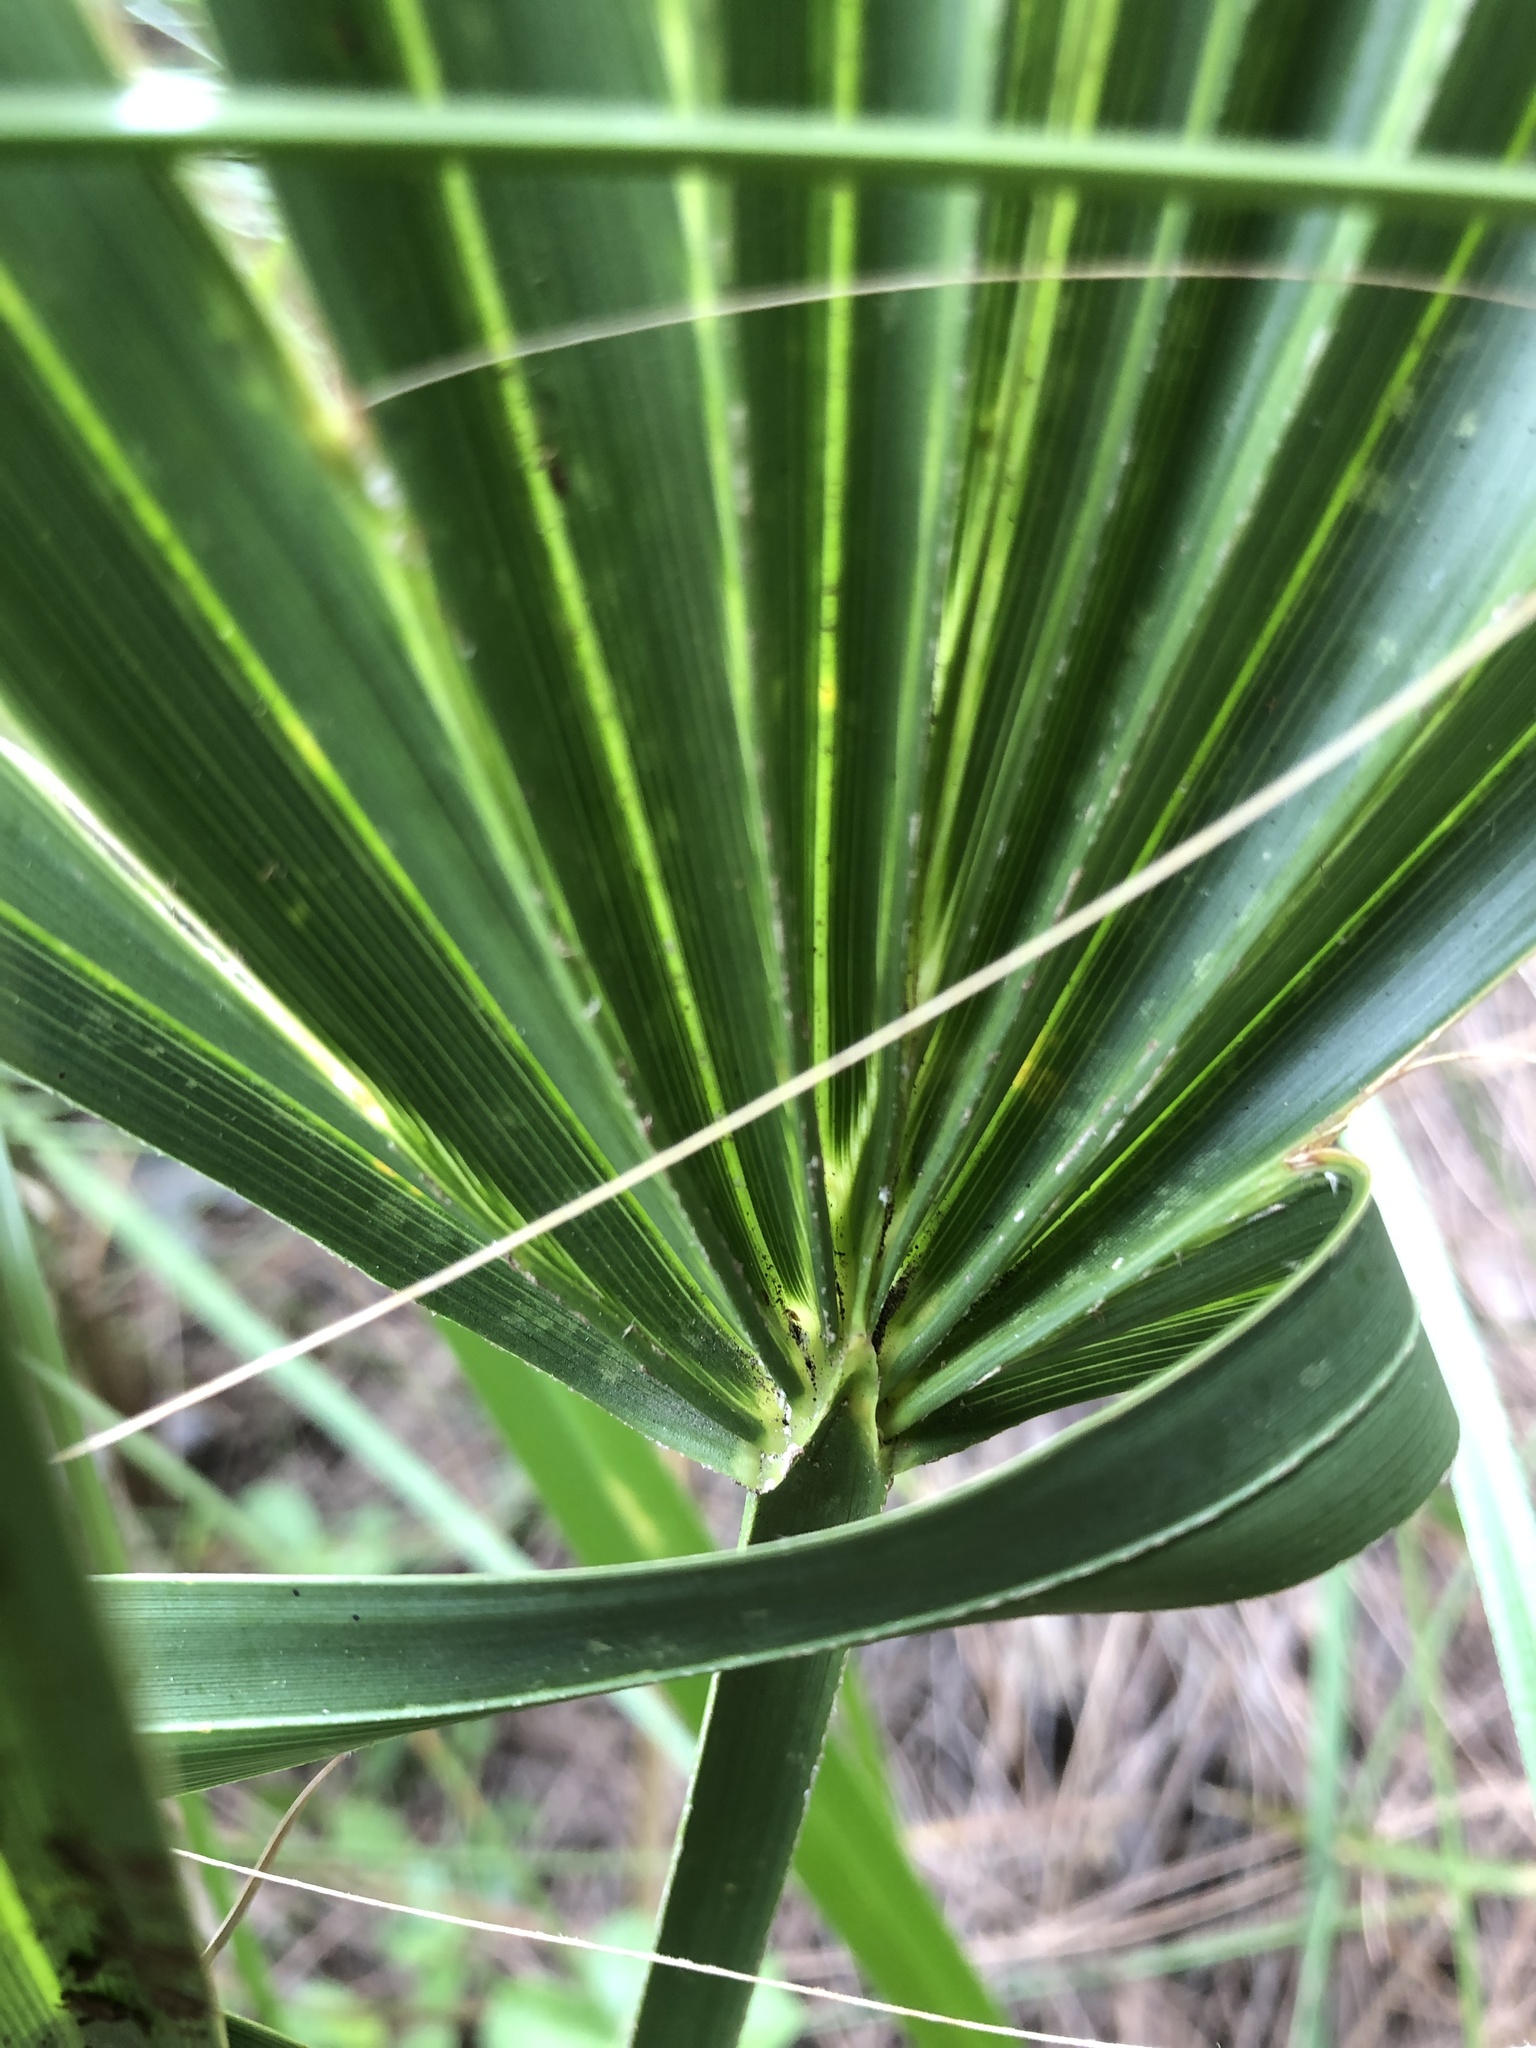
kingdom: Plantae
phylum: Tracheophyta
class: Liliopsida
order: Arecales
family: Arecaceae
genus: Sabal
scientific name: Sabal palmetto
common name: Blue palmetto
